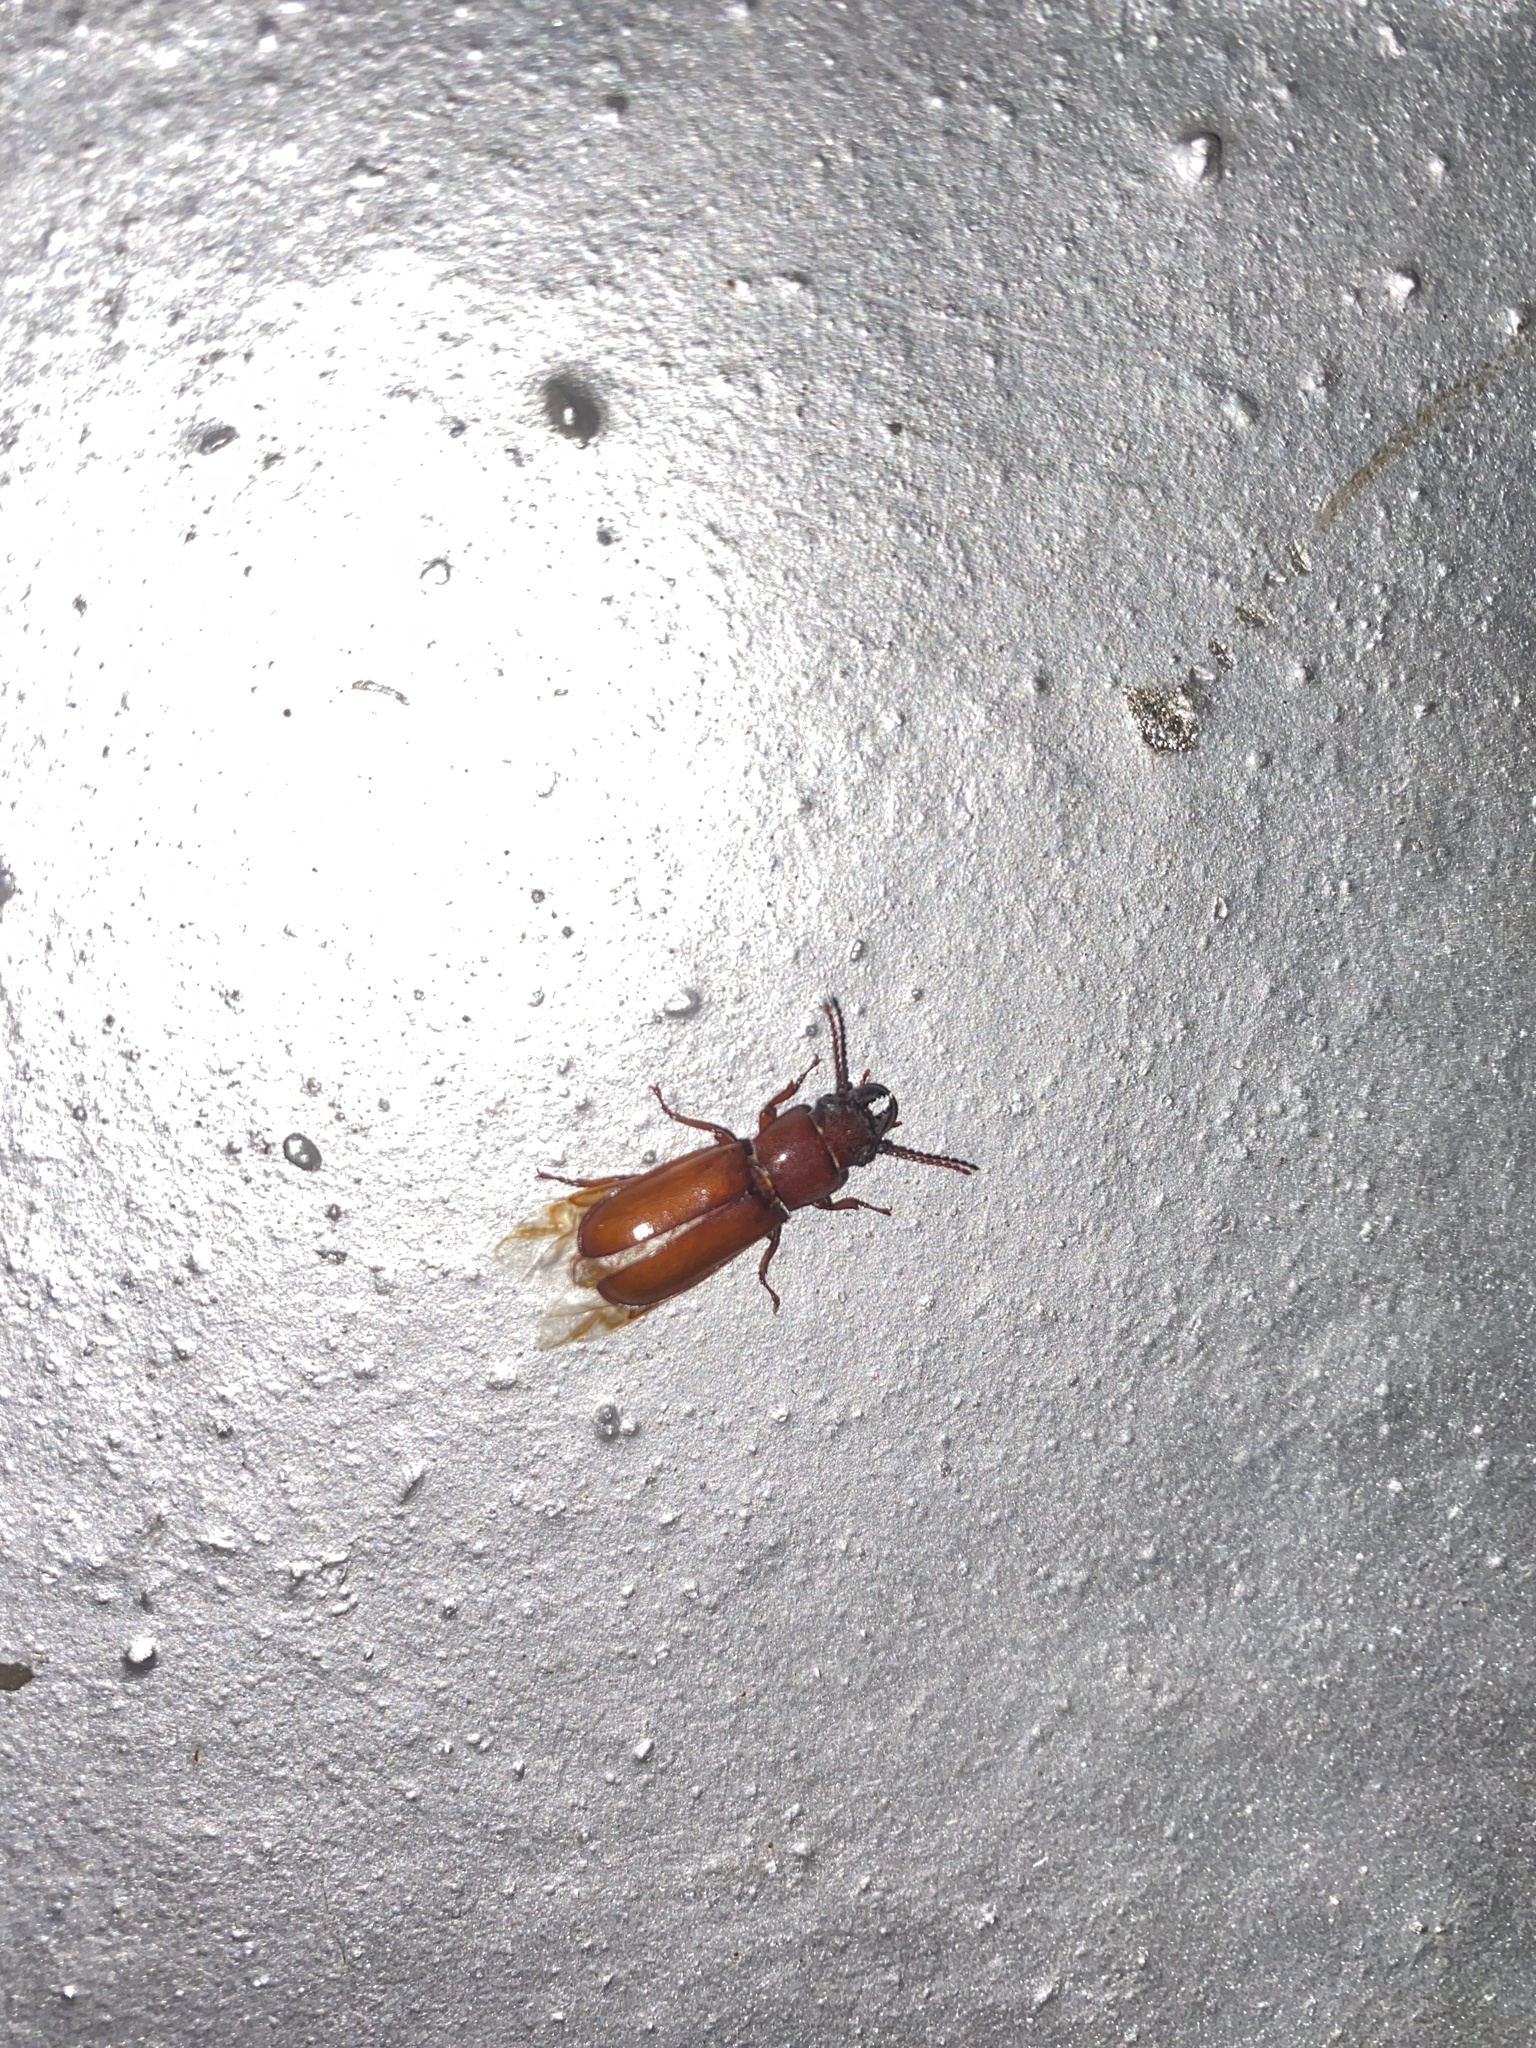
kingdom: Animalia
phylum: Arthropoda
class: Insecta
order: Coleoptera
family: Cerambycidae
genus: Neandra
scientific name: Neandra brunnea
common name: Pole borer
